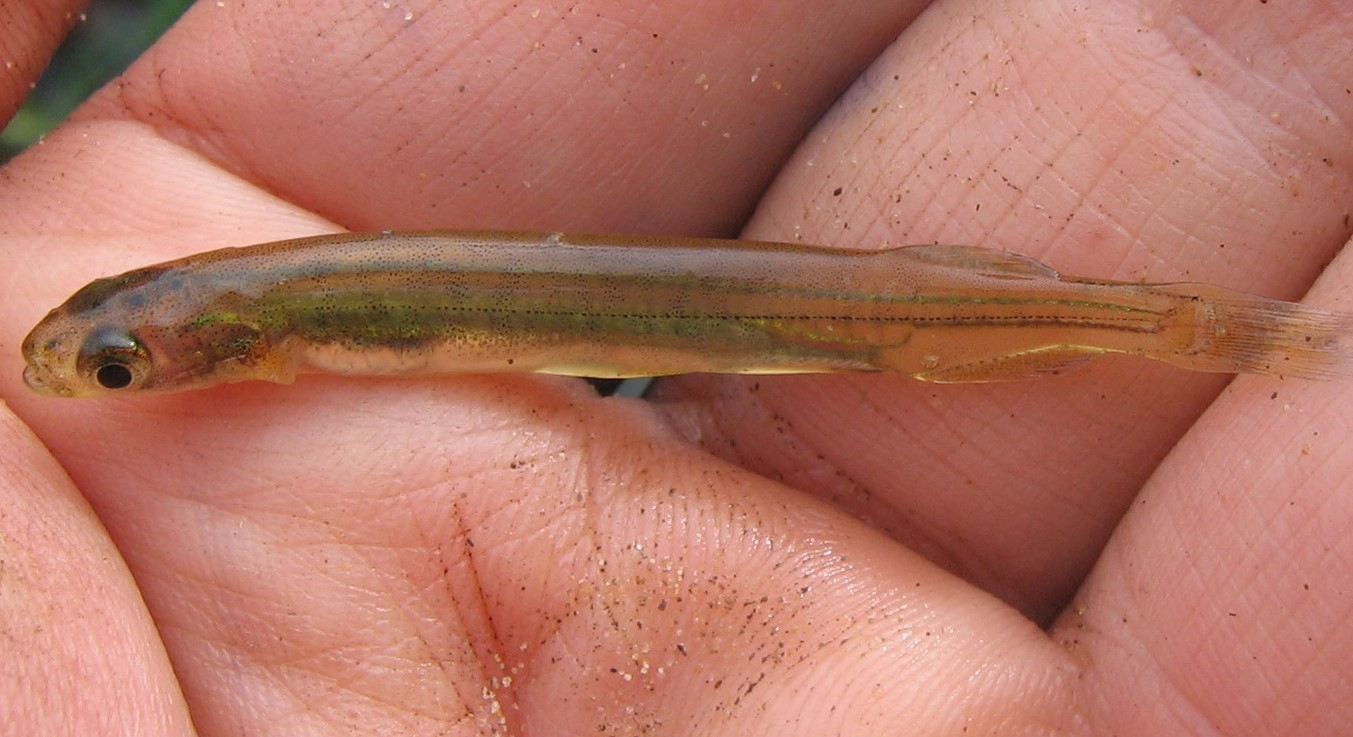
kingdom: Animalia
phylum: Chordata
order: Osmeriformes
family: Galaxiidae
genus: Galaxias
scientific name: Galaxias maculatus
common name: Common galaxias
